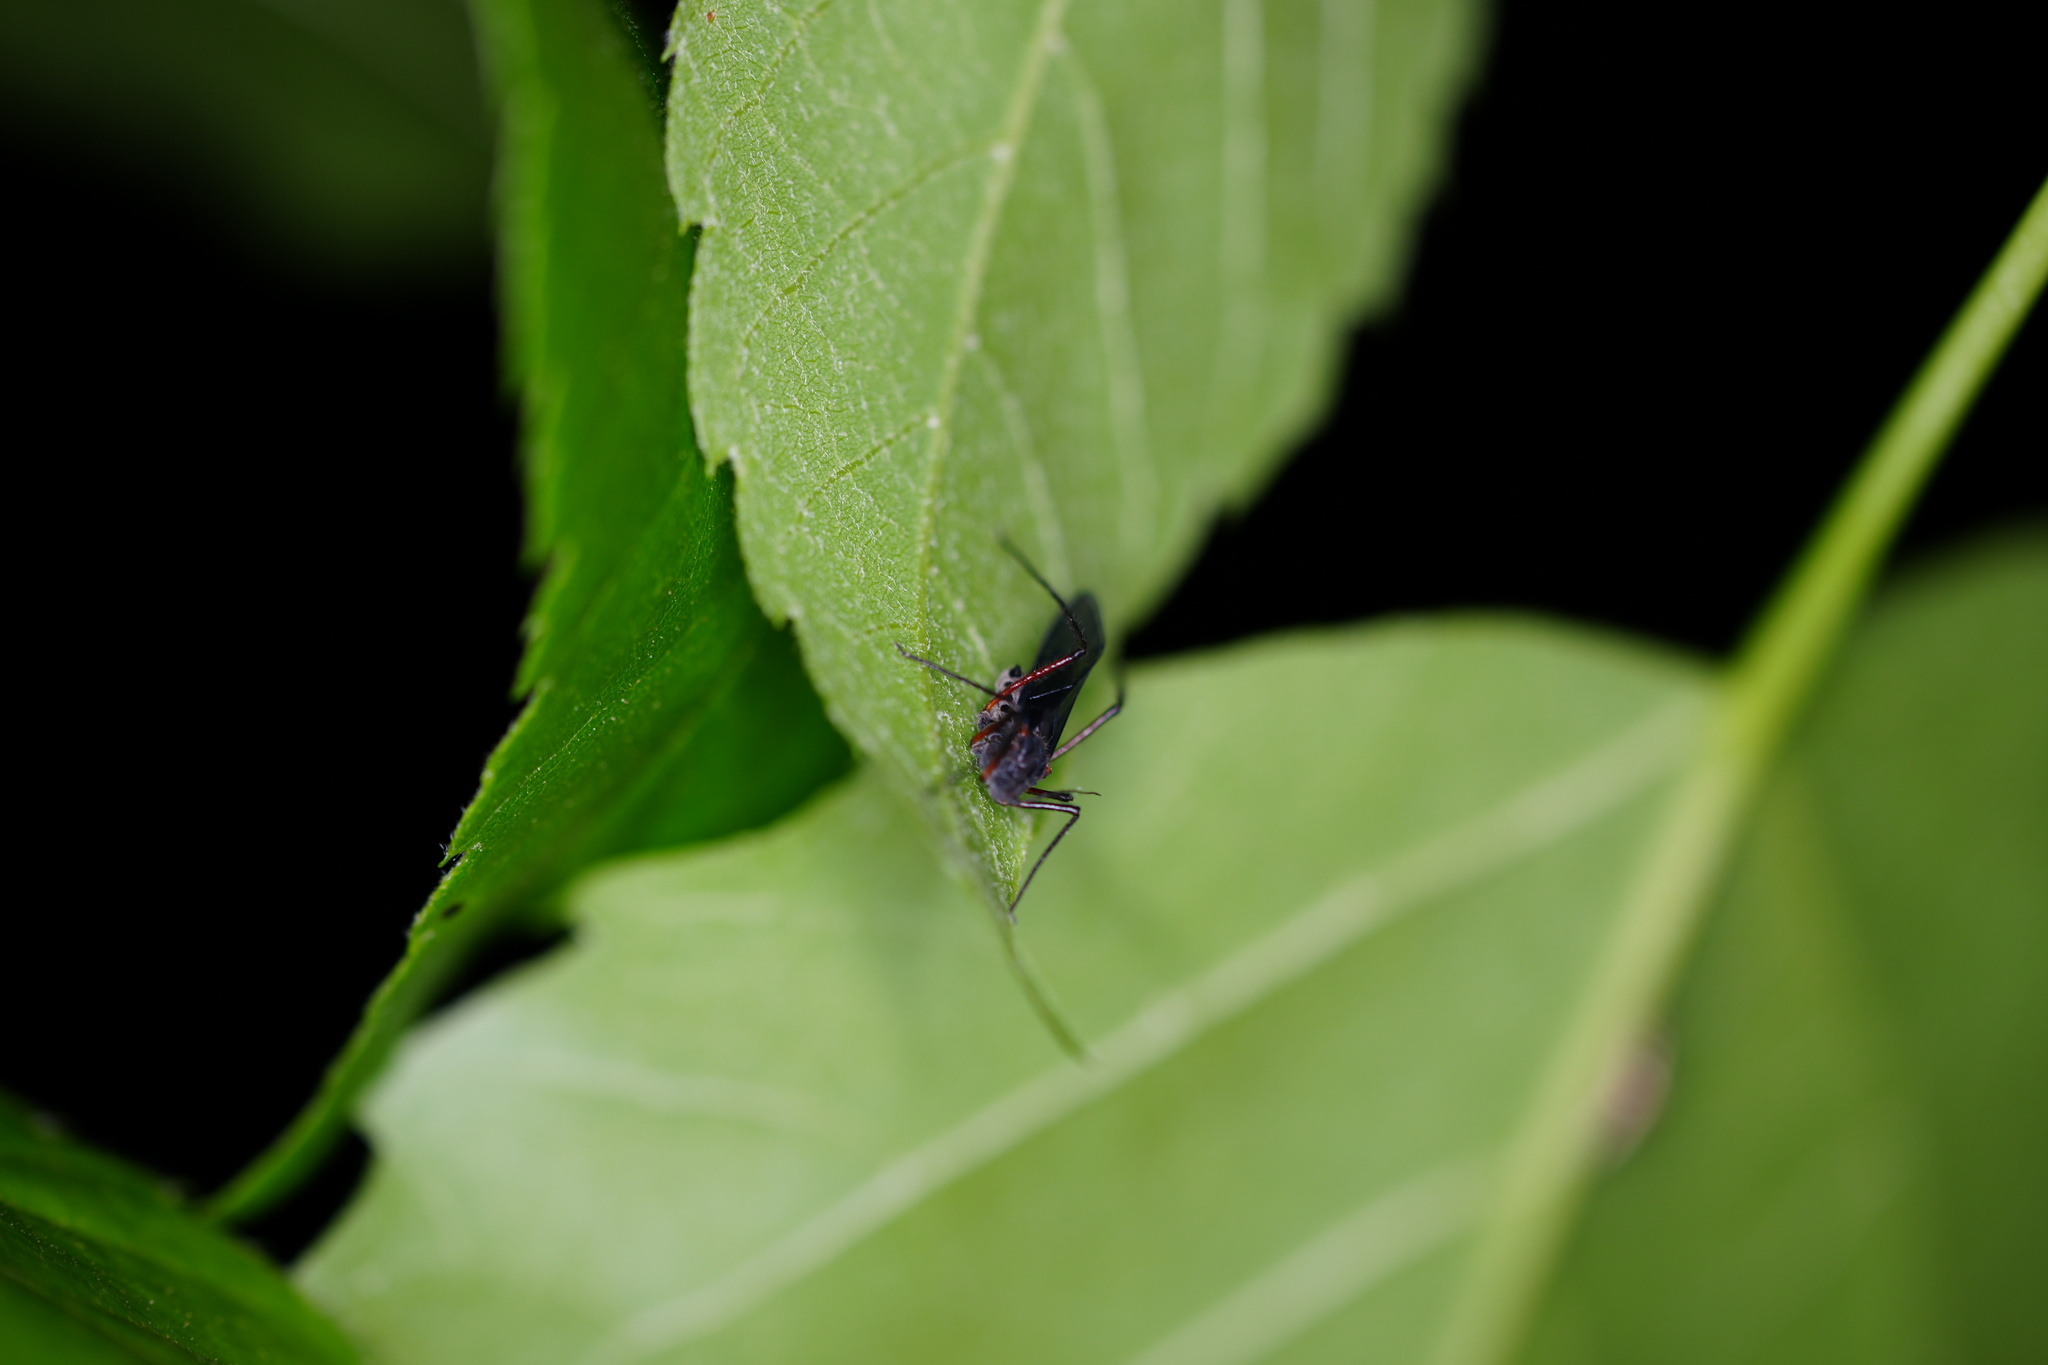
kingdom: Animalia
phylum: Arthropoda
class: Insecta
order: Hemiptera
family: Aphididae
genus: Longistigma
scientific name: Longistigma caryae
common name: Giant bark aphid
